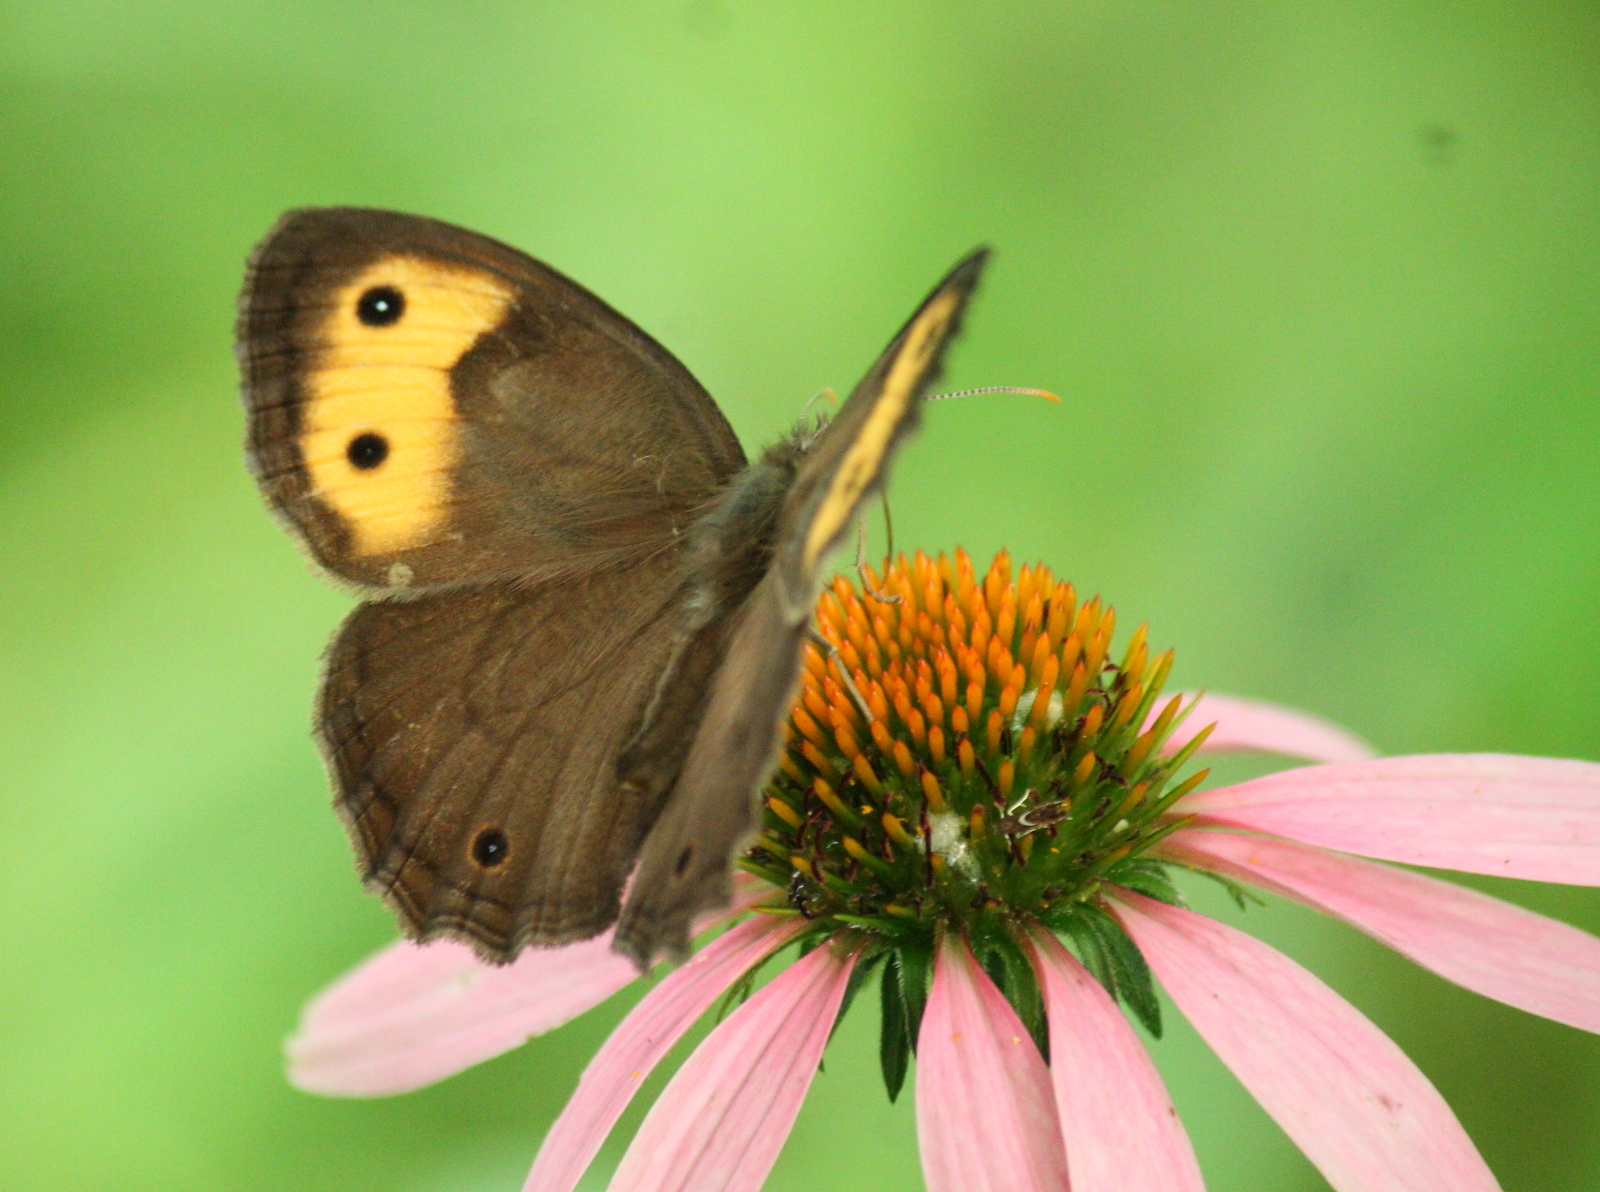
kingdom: Animalia
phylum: Arthropoda
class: Insecta
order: Lepidoptera
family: Nymphalidae
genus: Cercyonis
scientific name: Cercyonis pegala
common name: Common wood-nymph
